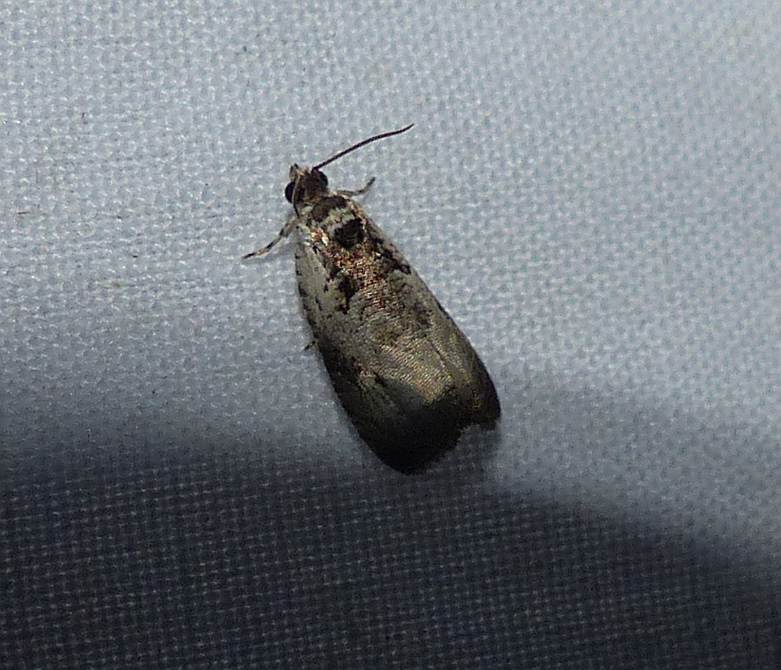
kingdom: Animalia
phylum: Arthropoda
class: Insecta
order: Lepidoptera
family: Tortricidae
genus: Olethreutes
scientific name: Olethreutes malana
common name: Malana leafroller moth
